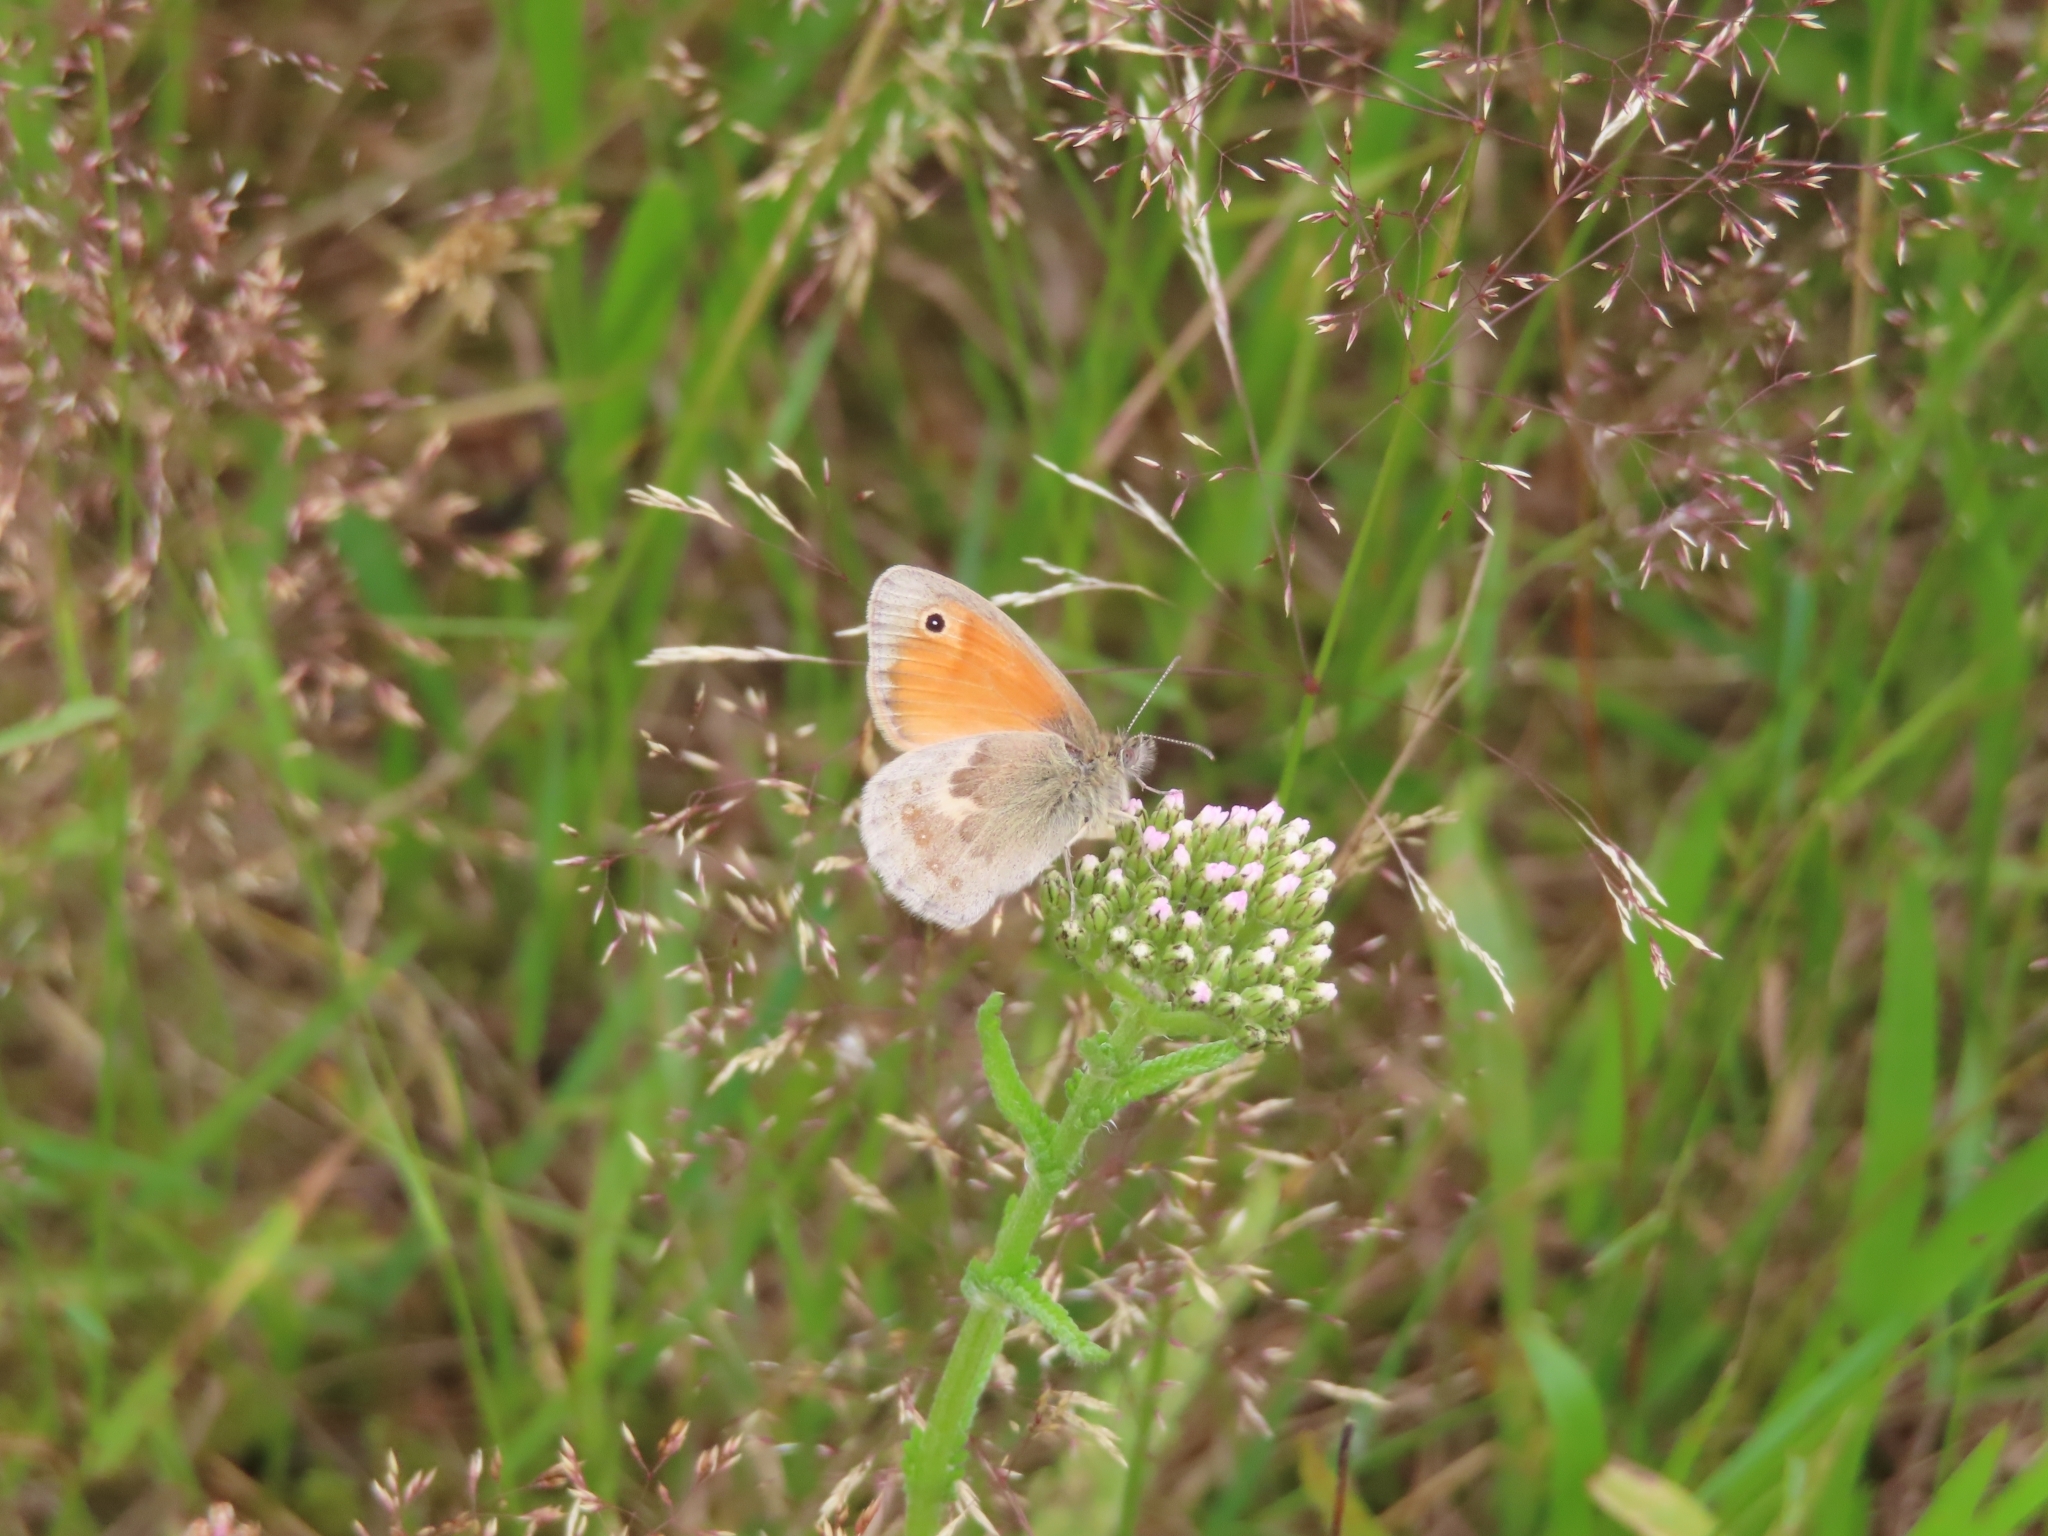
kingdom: Animalia
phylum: Arthropoda
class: Insecta
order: Lepidoptera
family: Nymphalidae
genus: Coenonympha
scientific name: Coenonympha pamphilus
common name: Small heath
